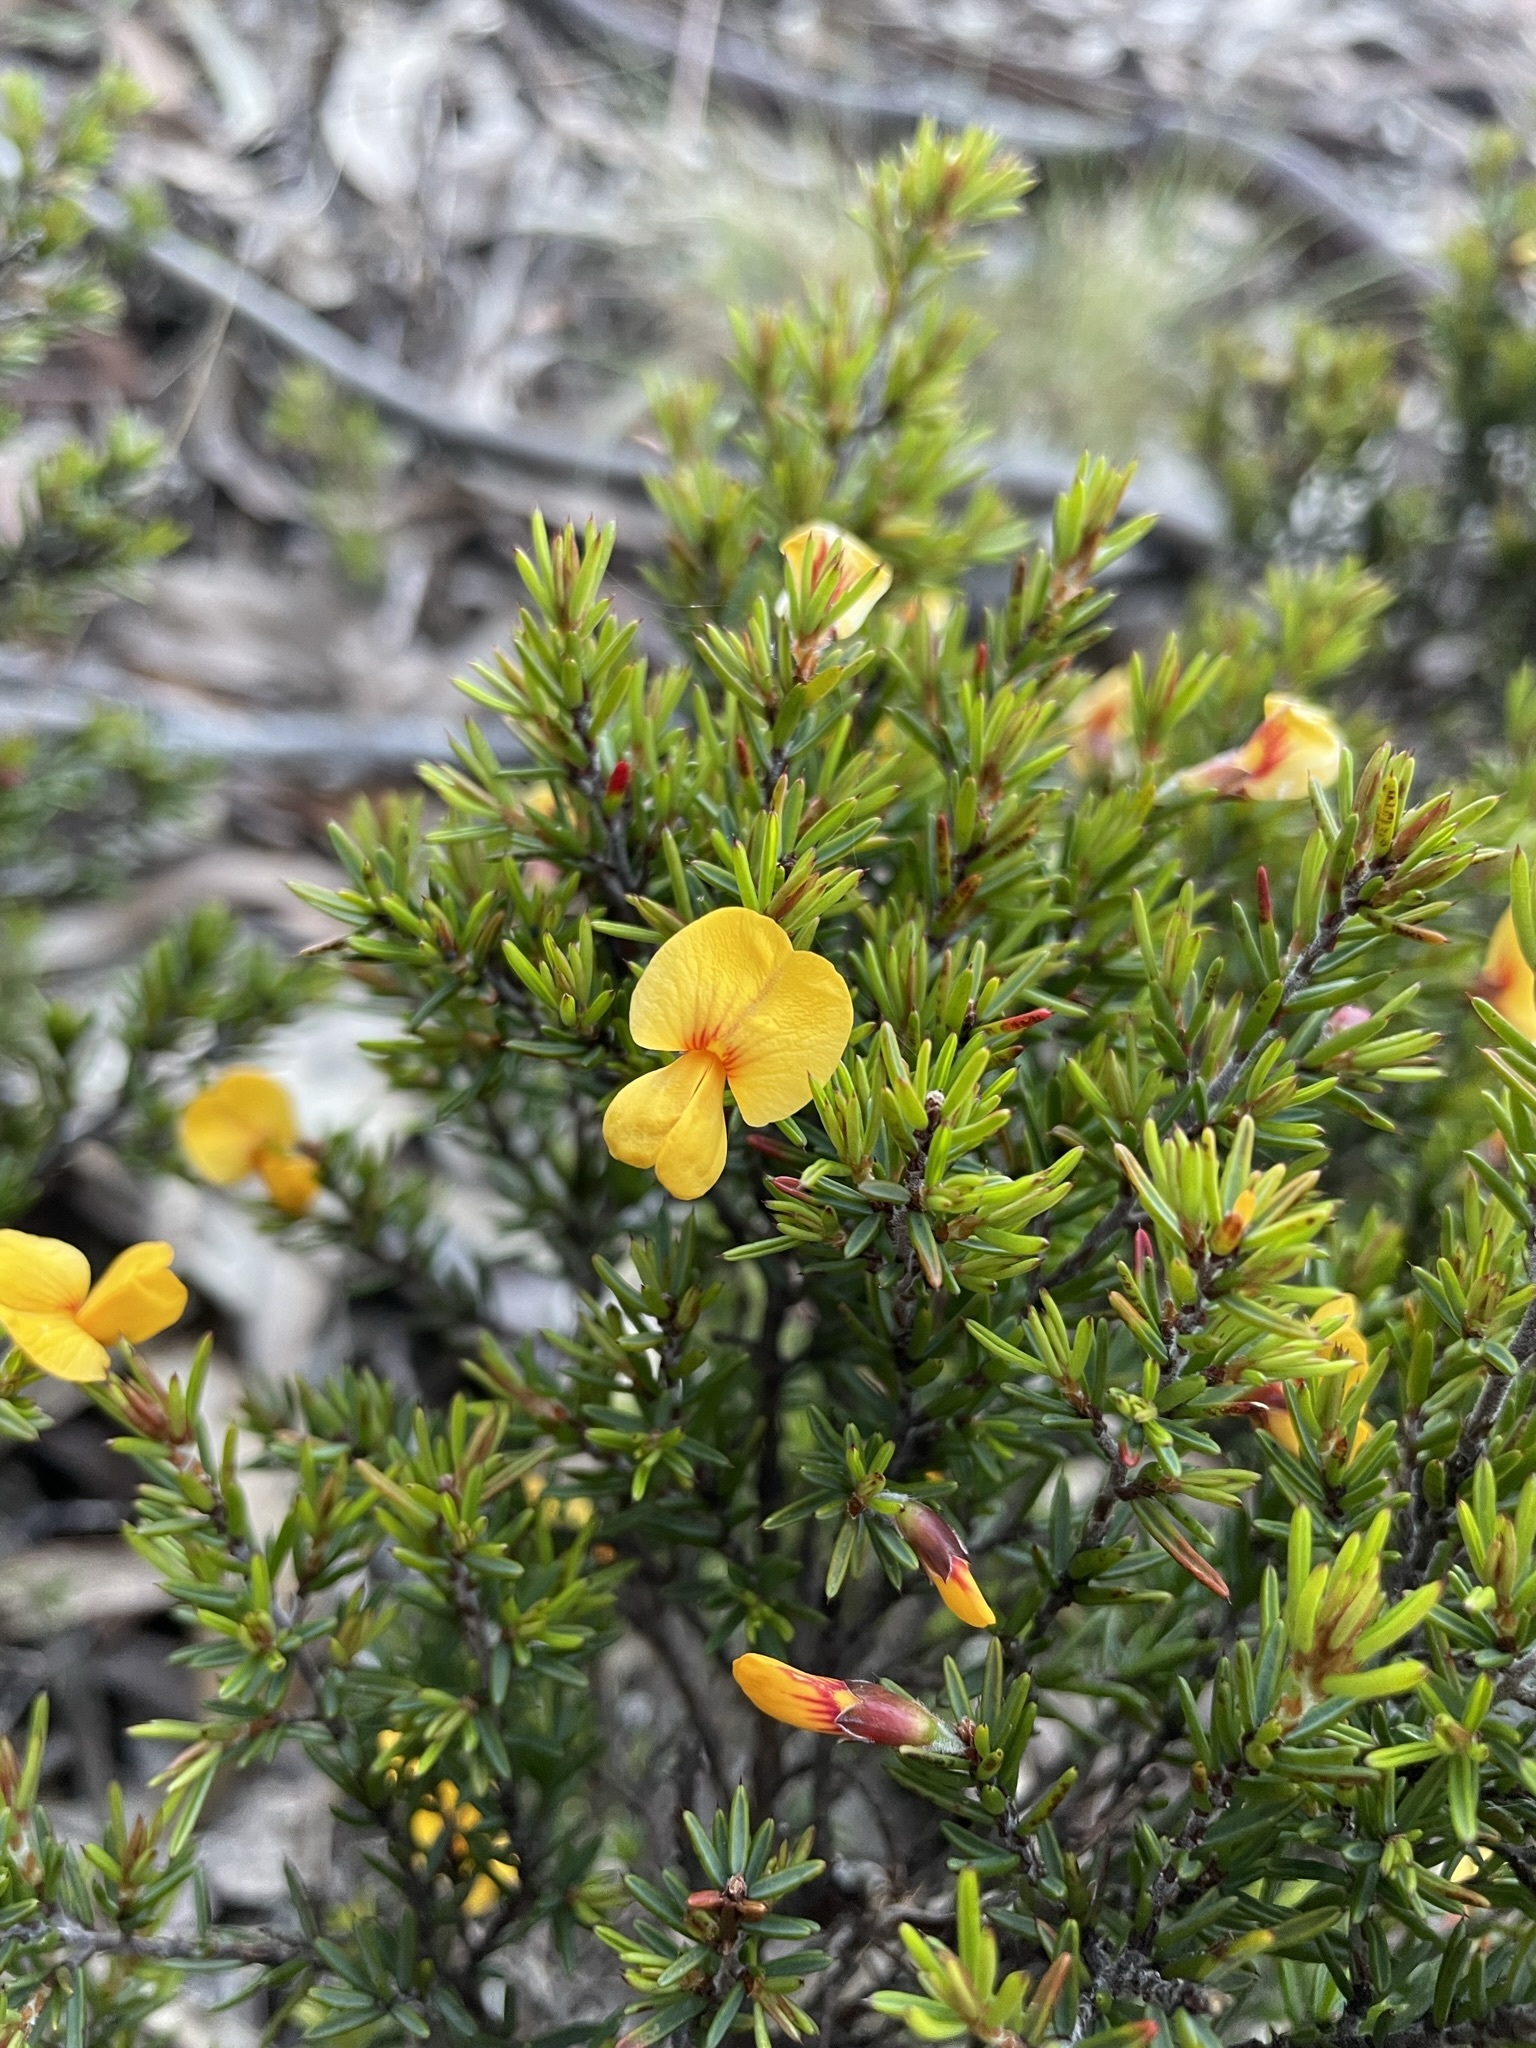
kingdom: Plantae
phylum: Tracheophyta
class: Magnoliopsida
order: Fabales
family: Fabaceae
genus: Pultenaea
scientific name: Pultenaea juniperina
